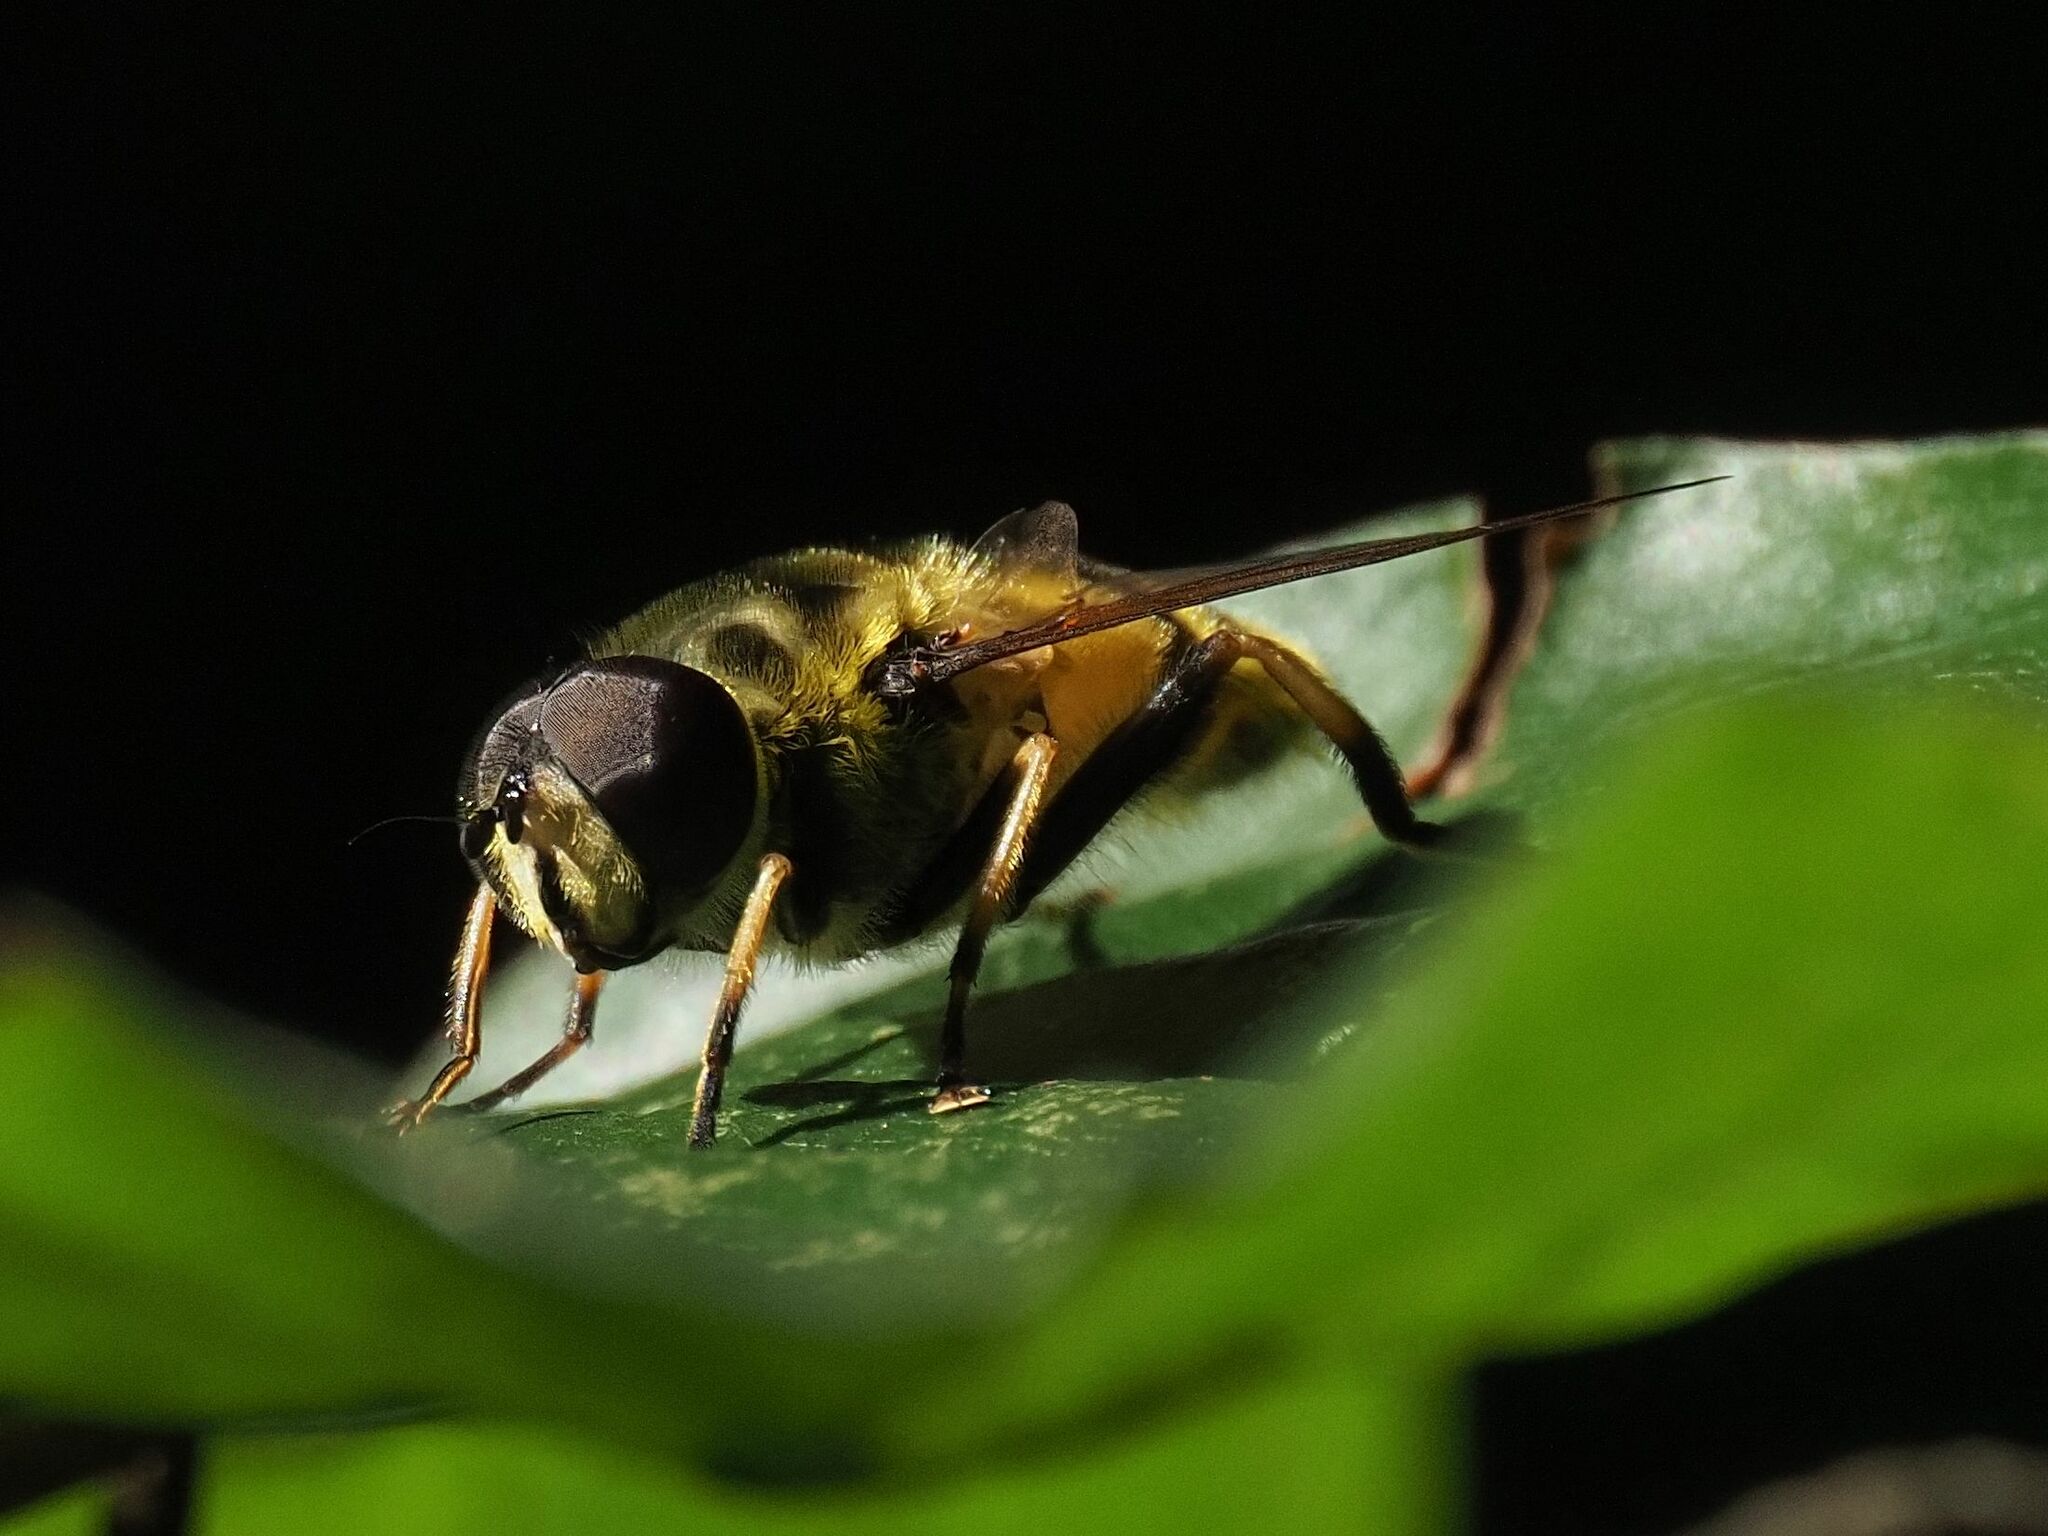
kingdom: Animalia
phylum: Arthropoda
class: Insecta
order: Diptera
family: Syrphidae
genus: Myathropa
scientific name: Myathropa florea
